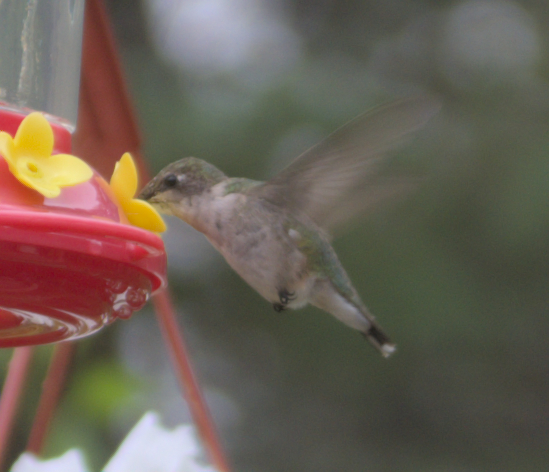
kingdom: Animalia
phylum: Chordata
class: Aves
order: Apodiformes
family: Trochilidae
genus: Archilochus
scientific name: Archilochus colubris
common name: Ruby-throated hummingbird
